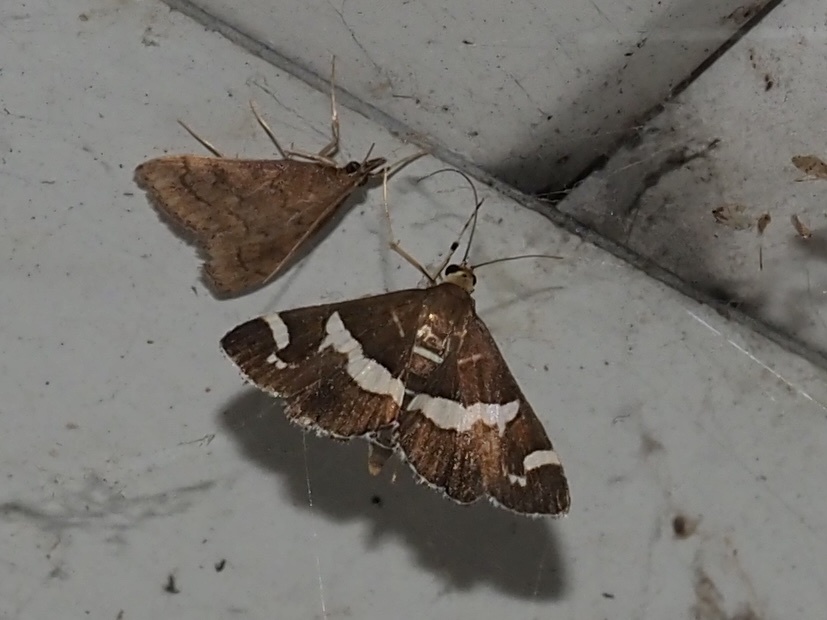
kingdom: Animalia
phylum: Arthropoda
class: Insecta
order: Lepidoptera
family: Crambidae
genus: Spoladea
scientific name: Spoladea recurvalis
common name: Beet webworm moth
